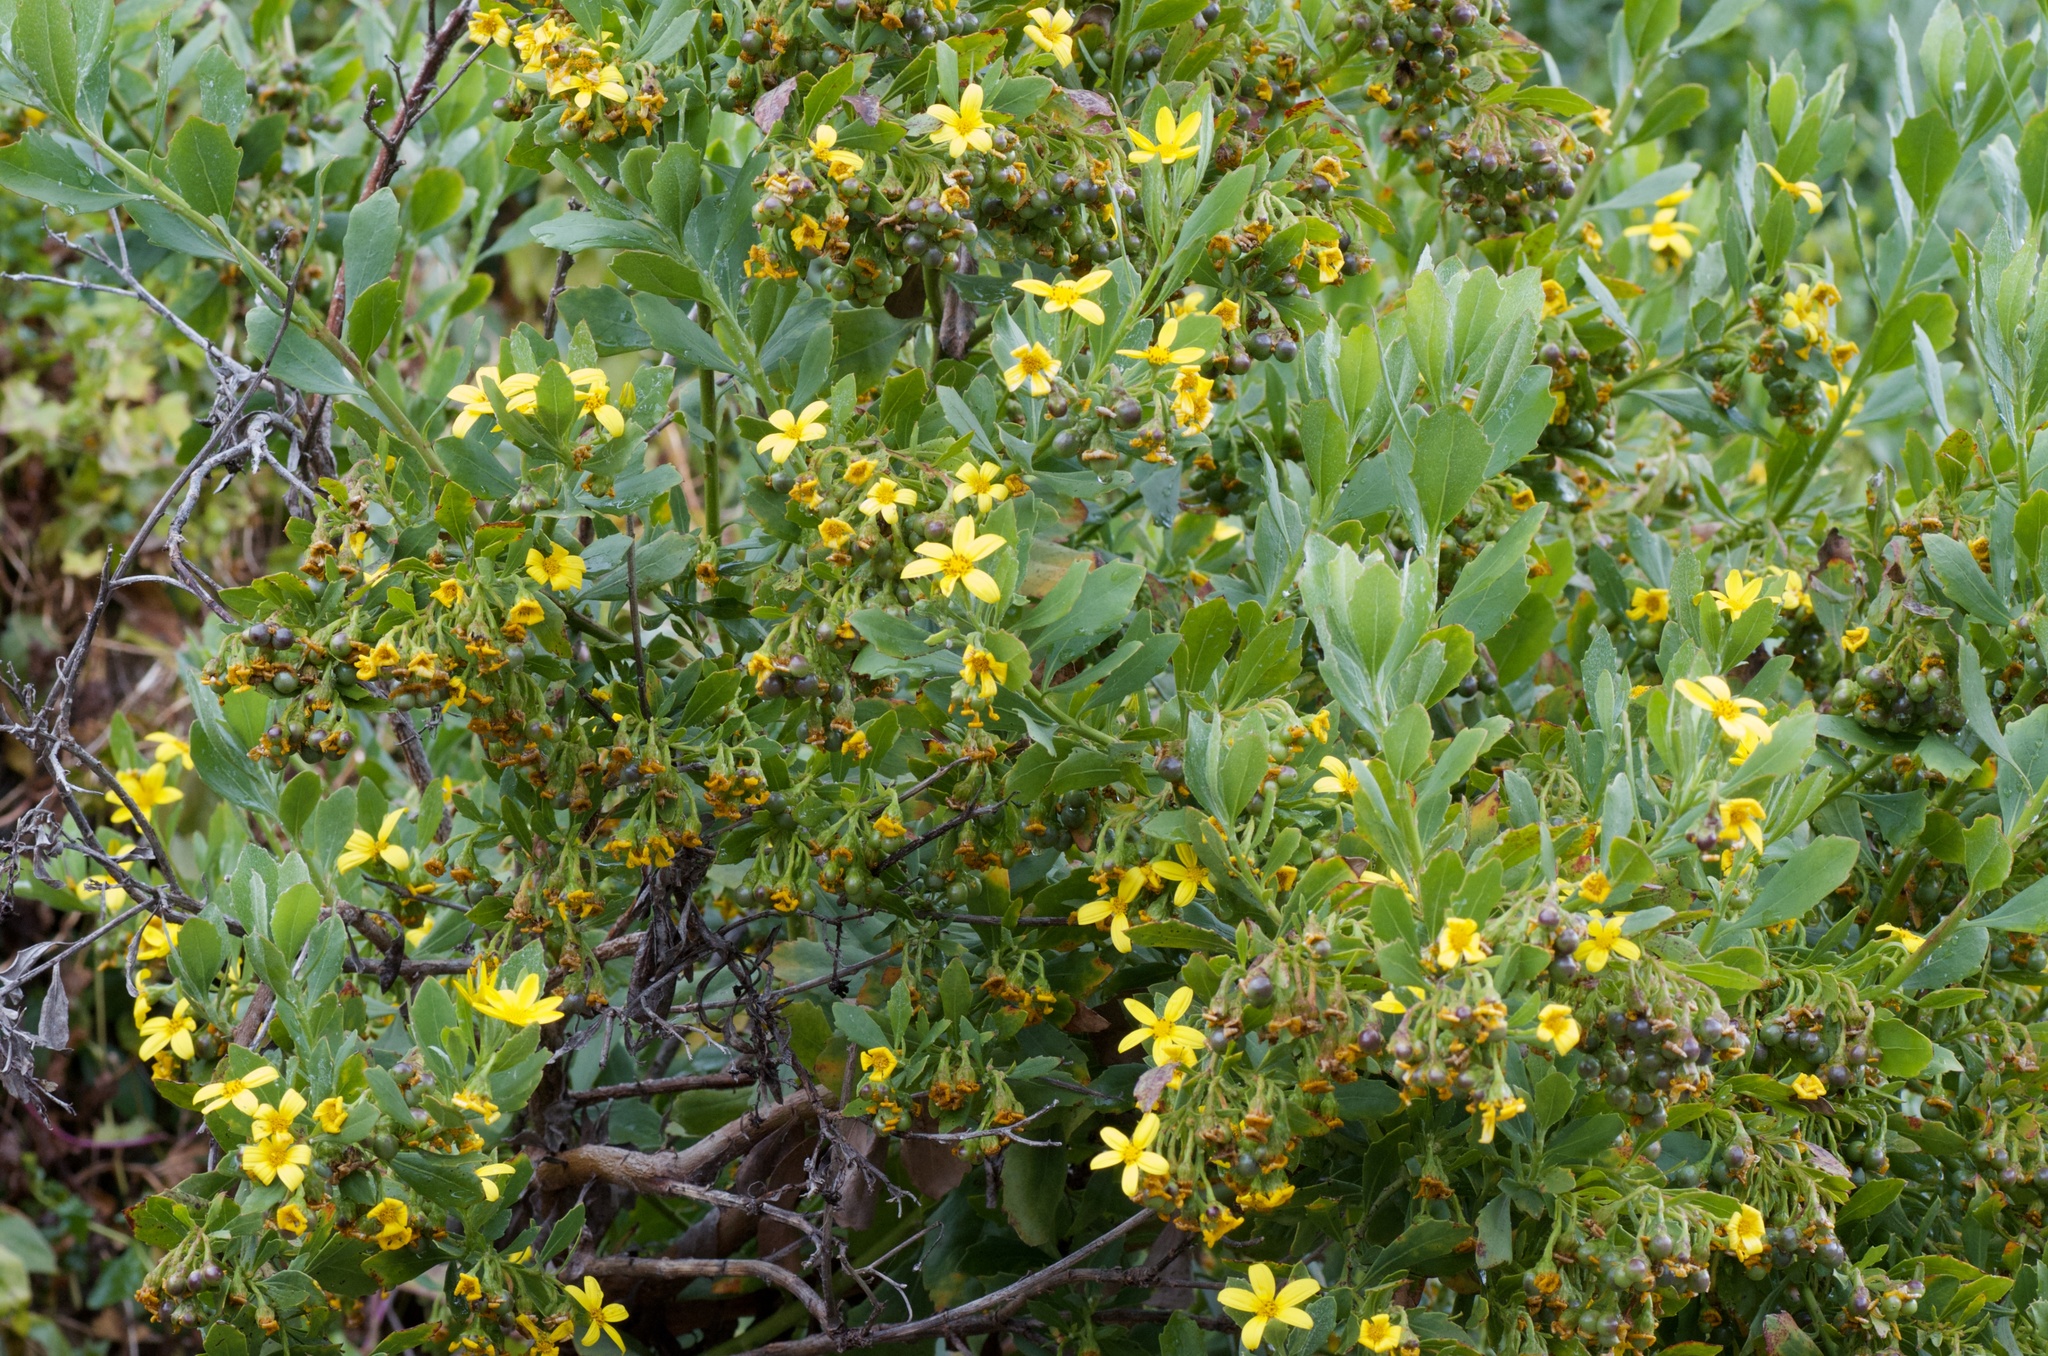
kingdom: Plantae
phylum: Tracheophyta
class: Magnoliopsida
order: Asterales
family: Asteraceae
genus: Osteospermum
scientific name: Osteospermum moniliferum
